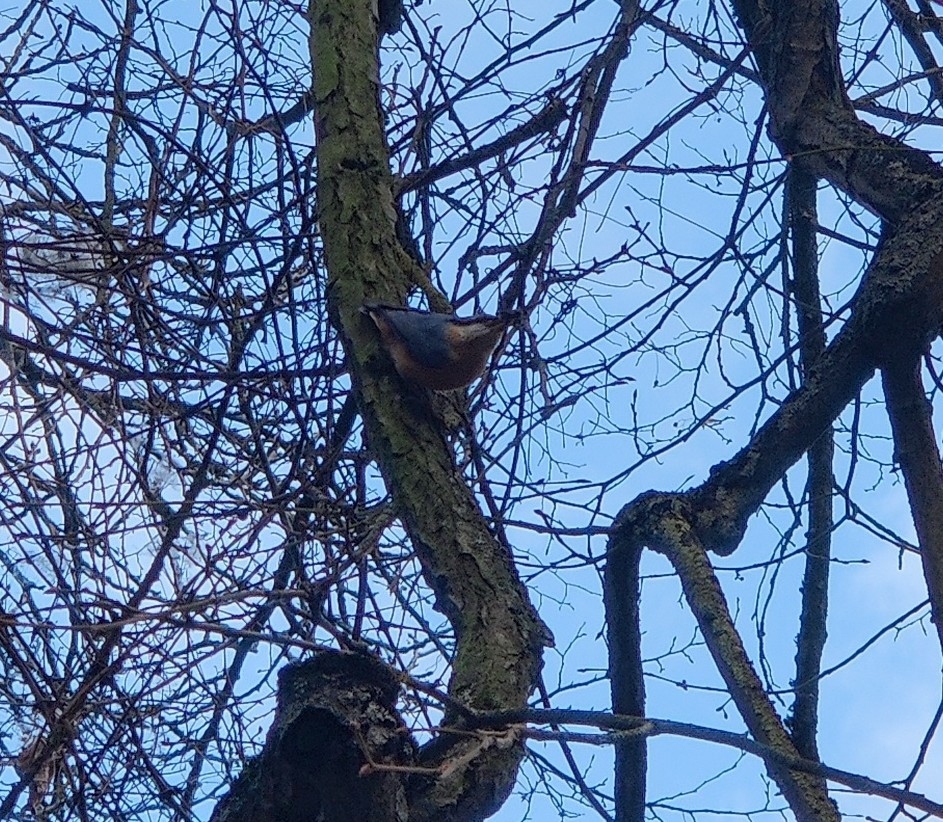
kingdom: Animalia
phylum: Chordata
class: Aves
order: Passeriformes
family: Sittidae
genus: Sitta
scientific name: Sitta europaea
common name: Eurasian nuthatch
